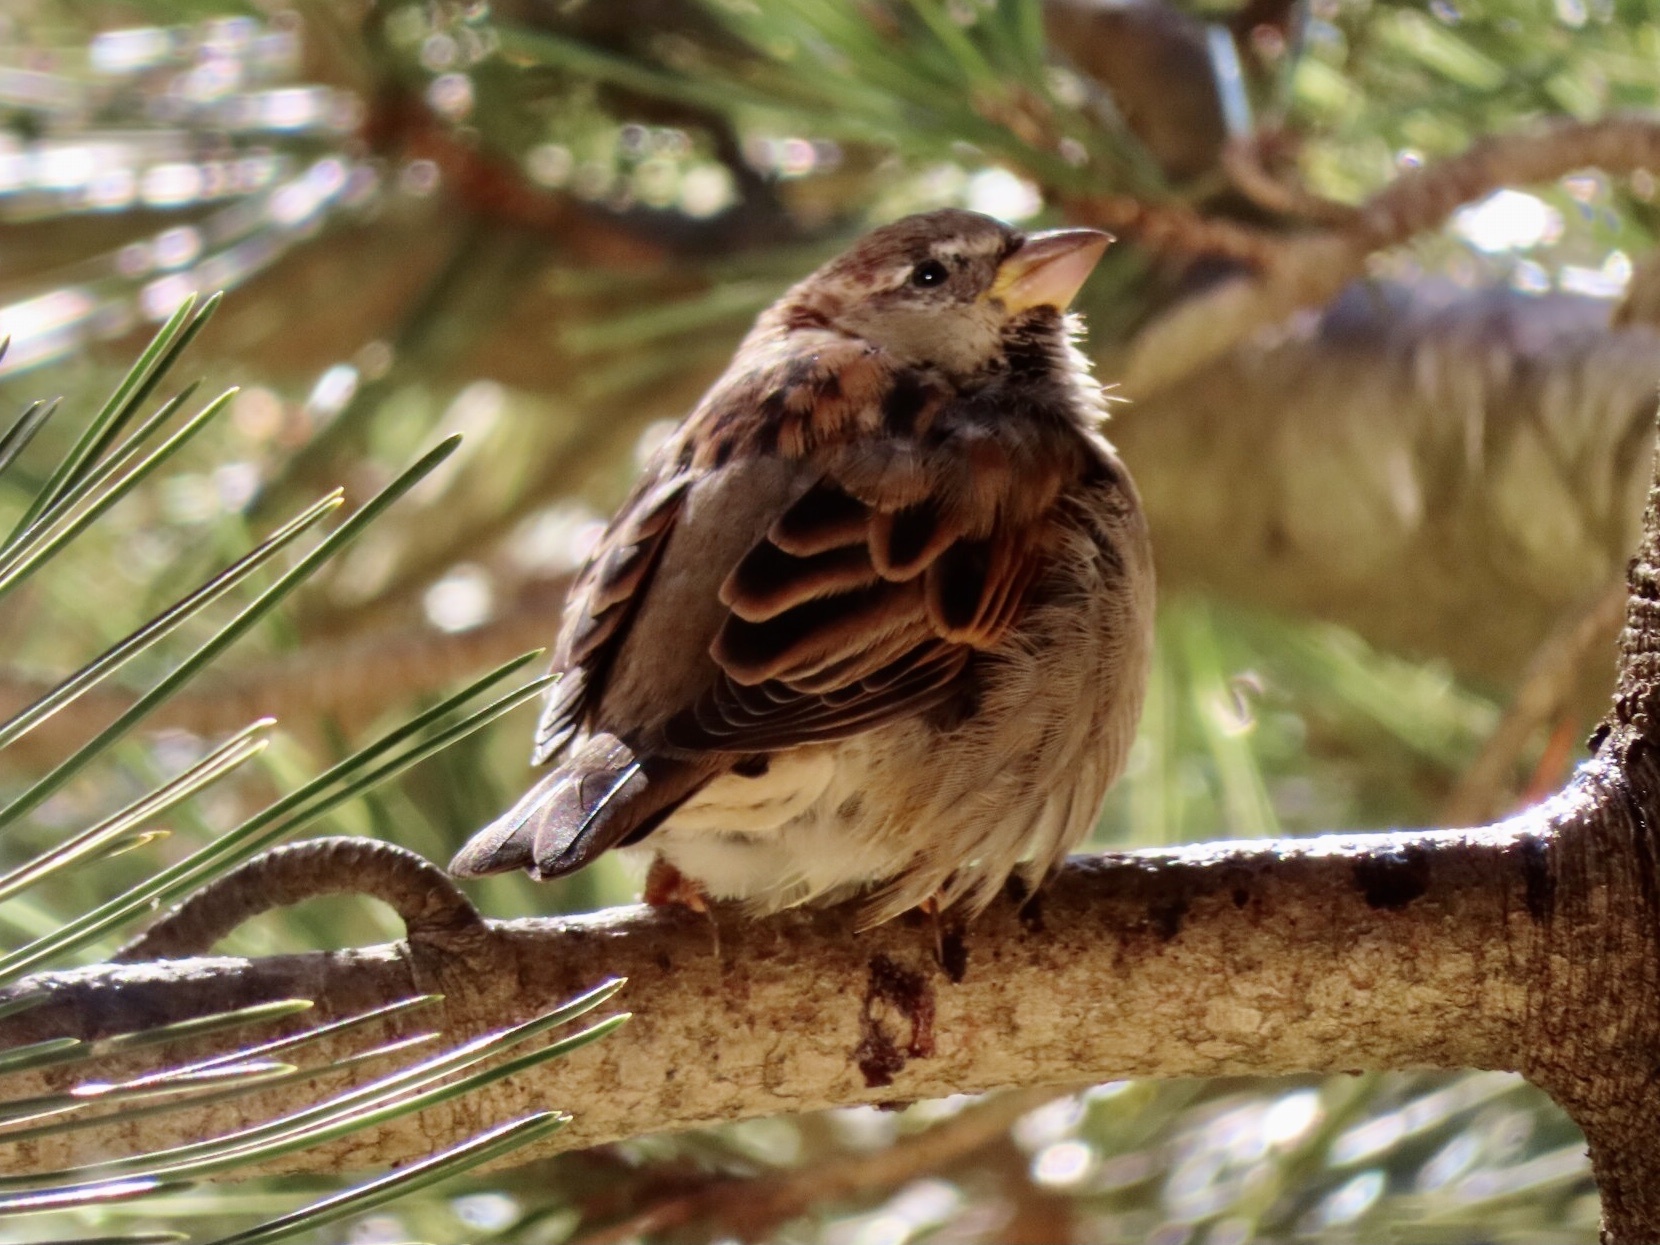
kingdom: Animalia
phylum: Chordata
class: Aves
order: Passeriformes
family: Passeridae
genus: Passer
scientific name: Passer domesticus
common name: House sparrow
